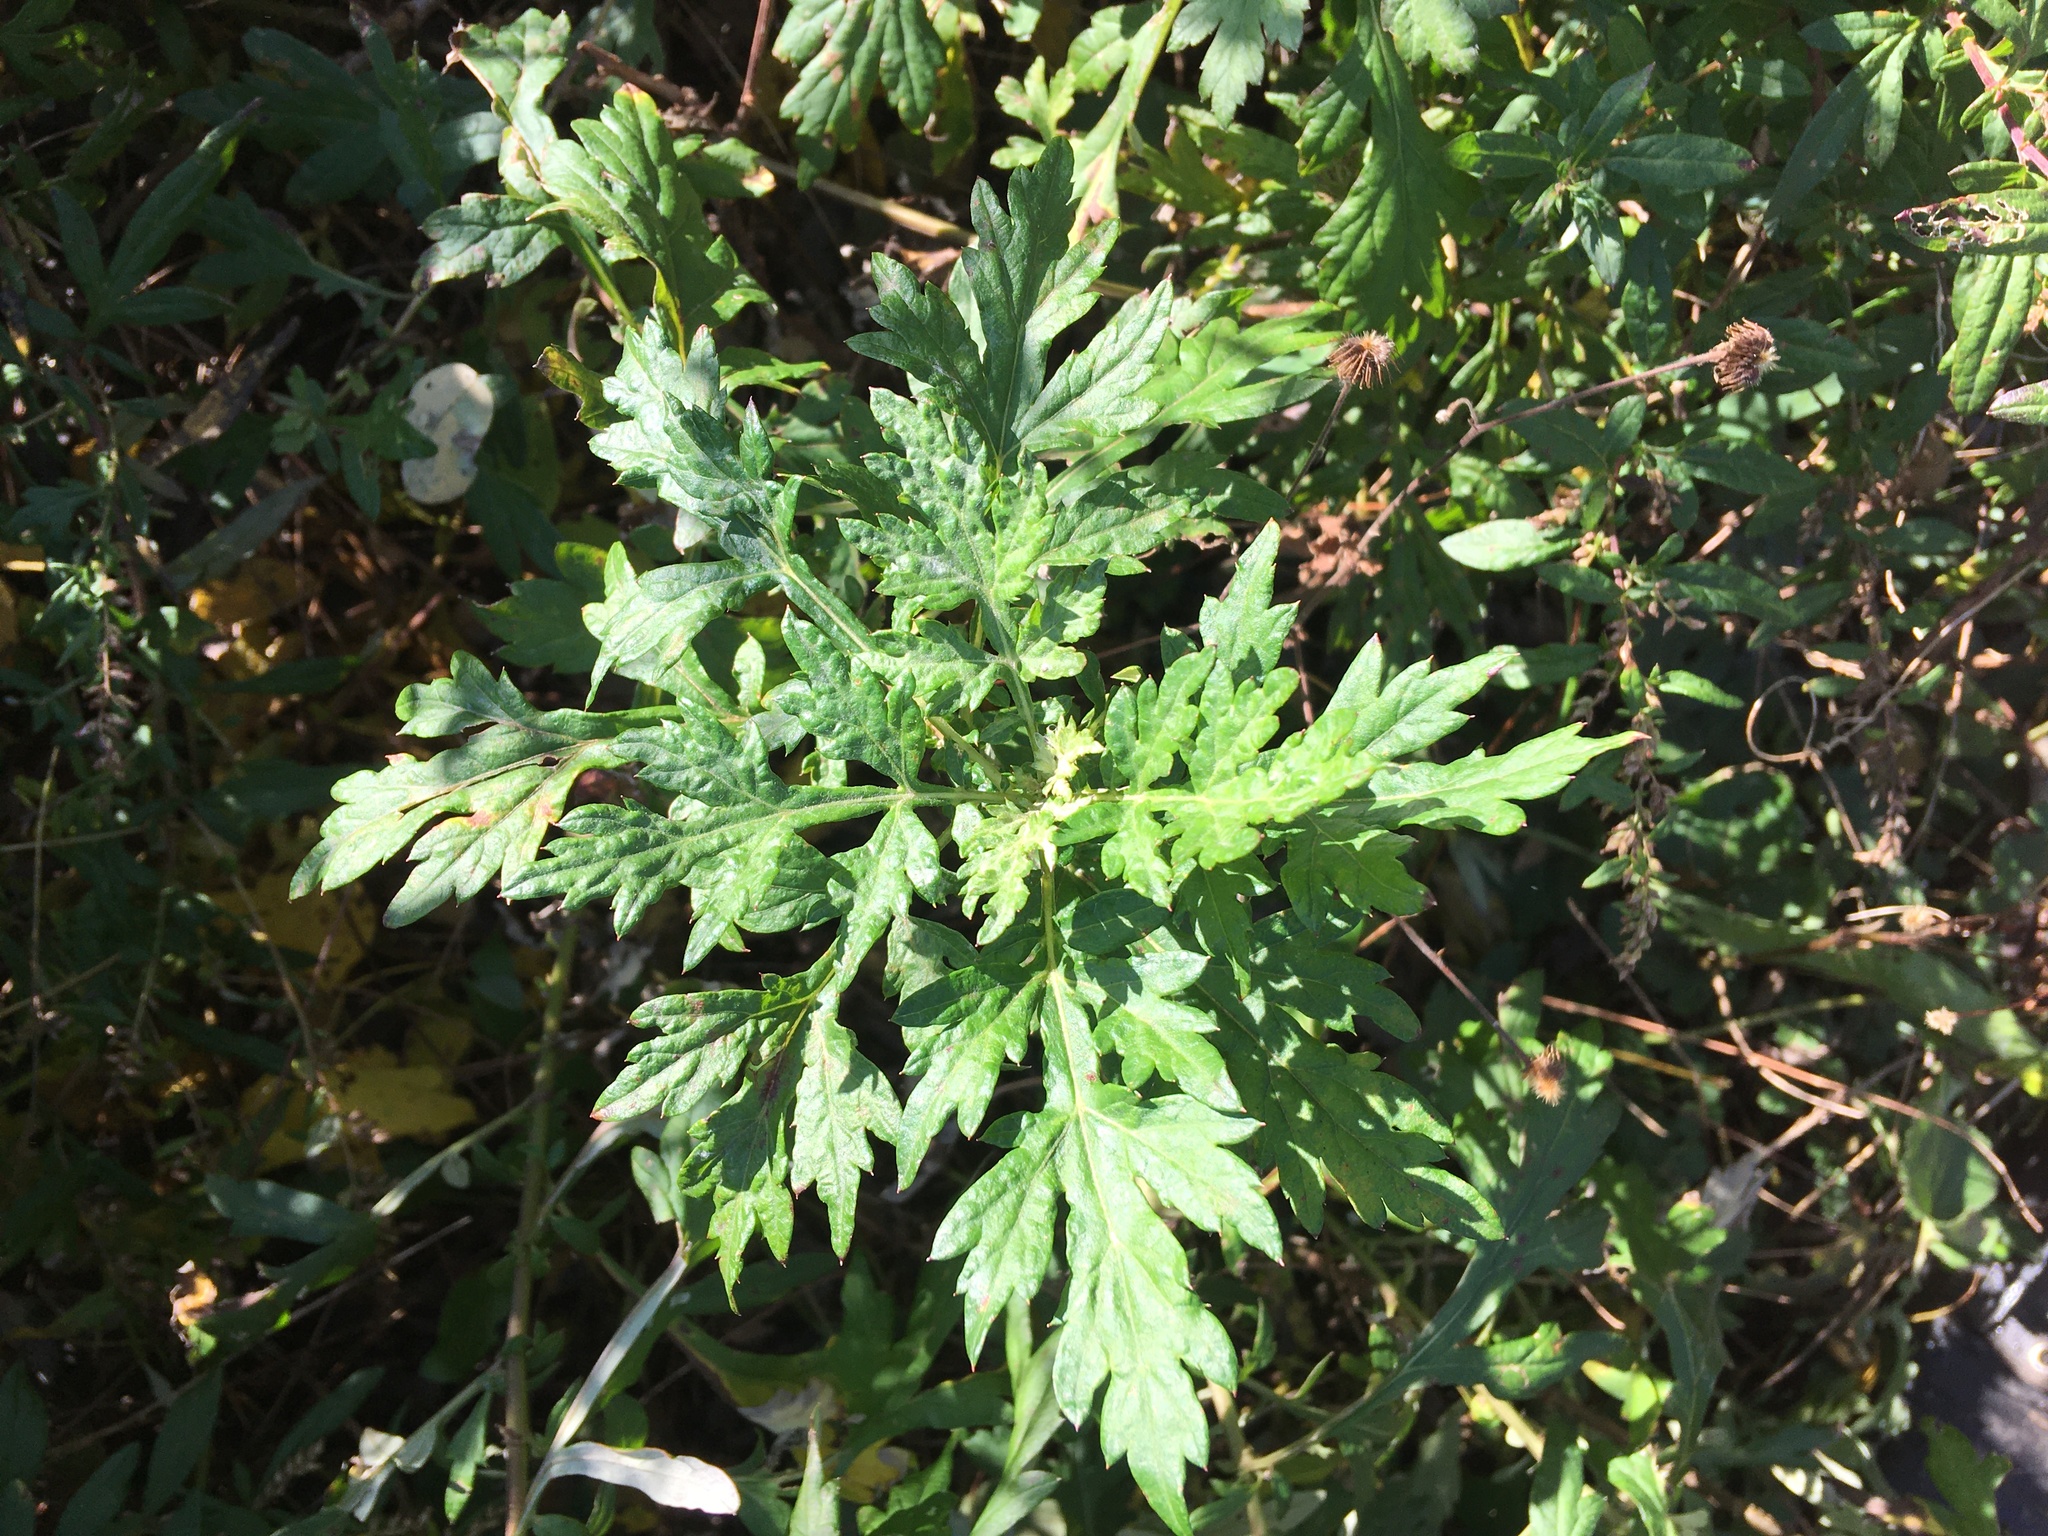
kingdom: Plantae
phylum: Tracheophyta
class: Magnoliopsida
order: Asterales
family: Asteraceae
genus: Artemisia
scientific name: Artemisia vulgaris
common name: Mugwort
